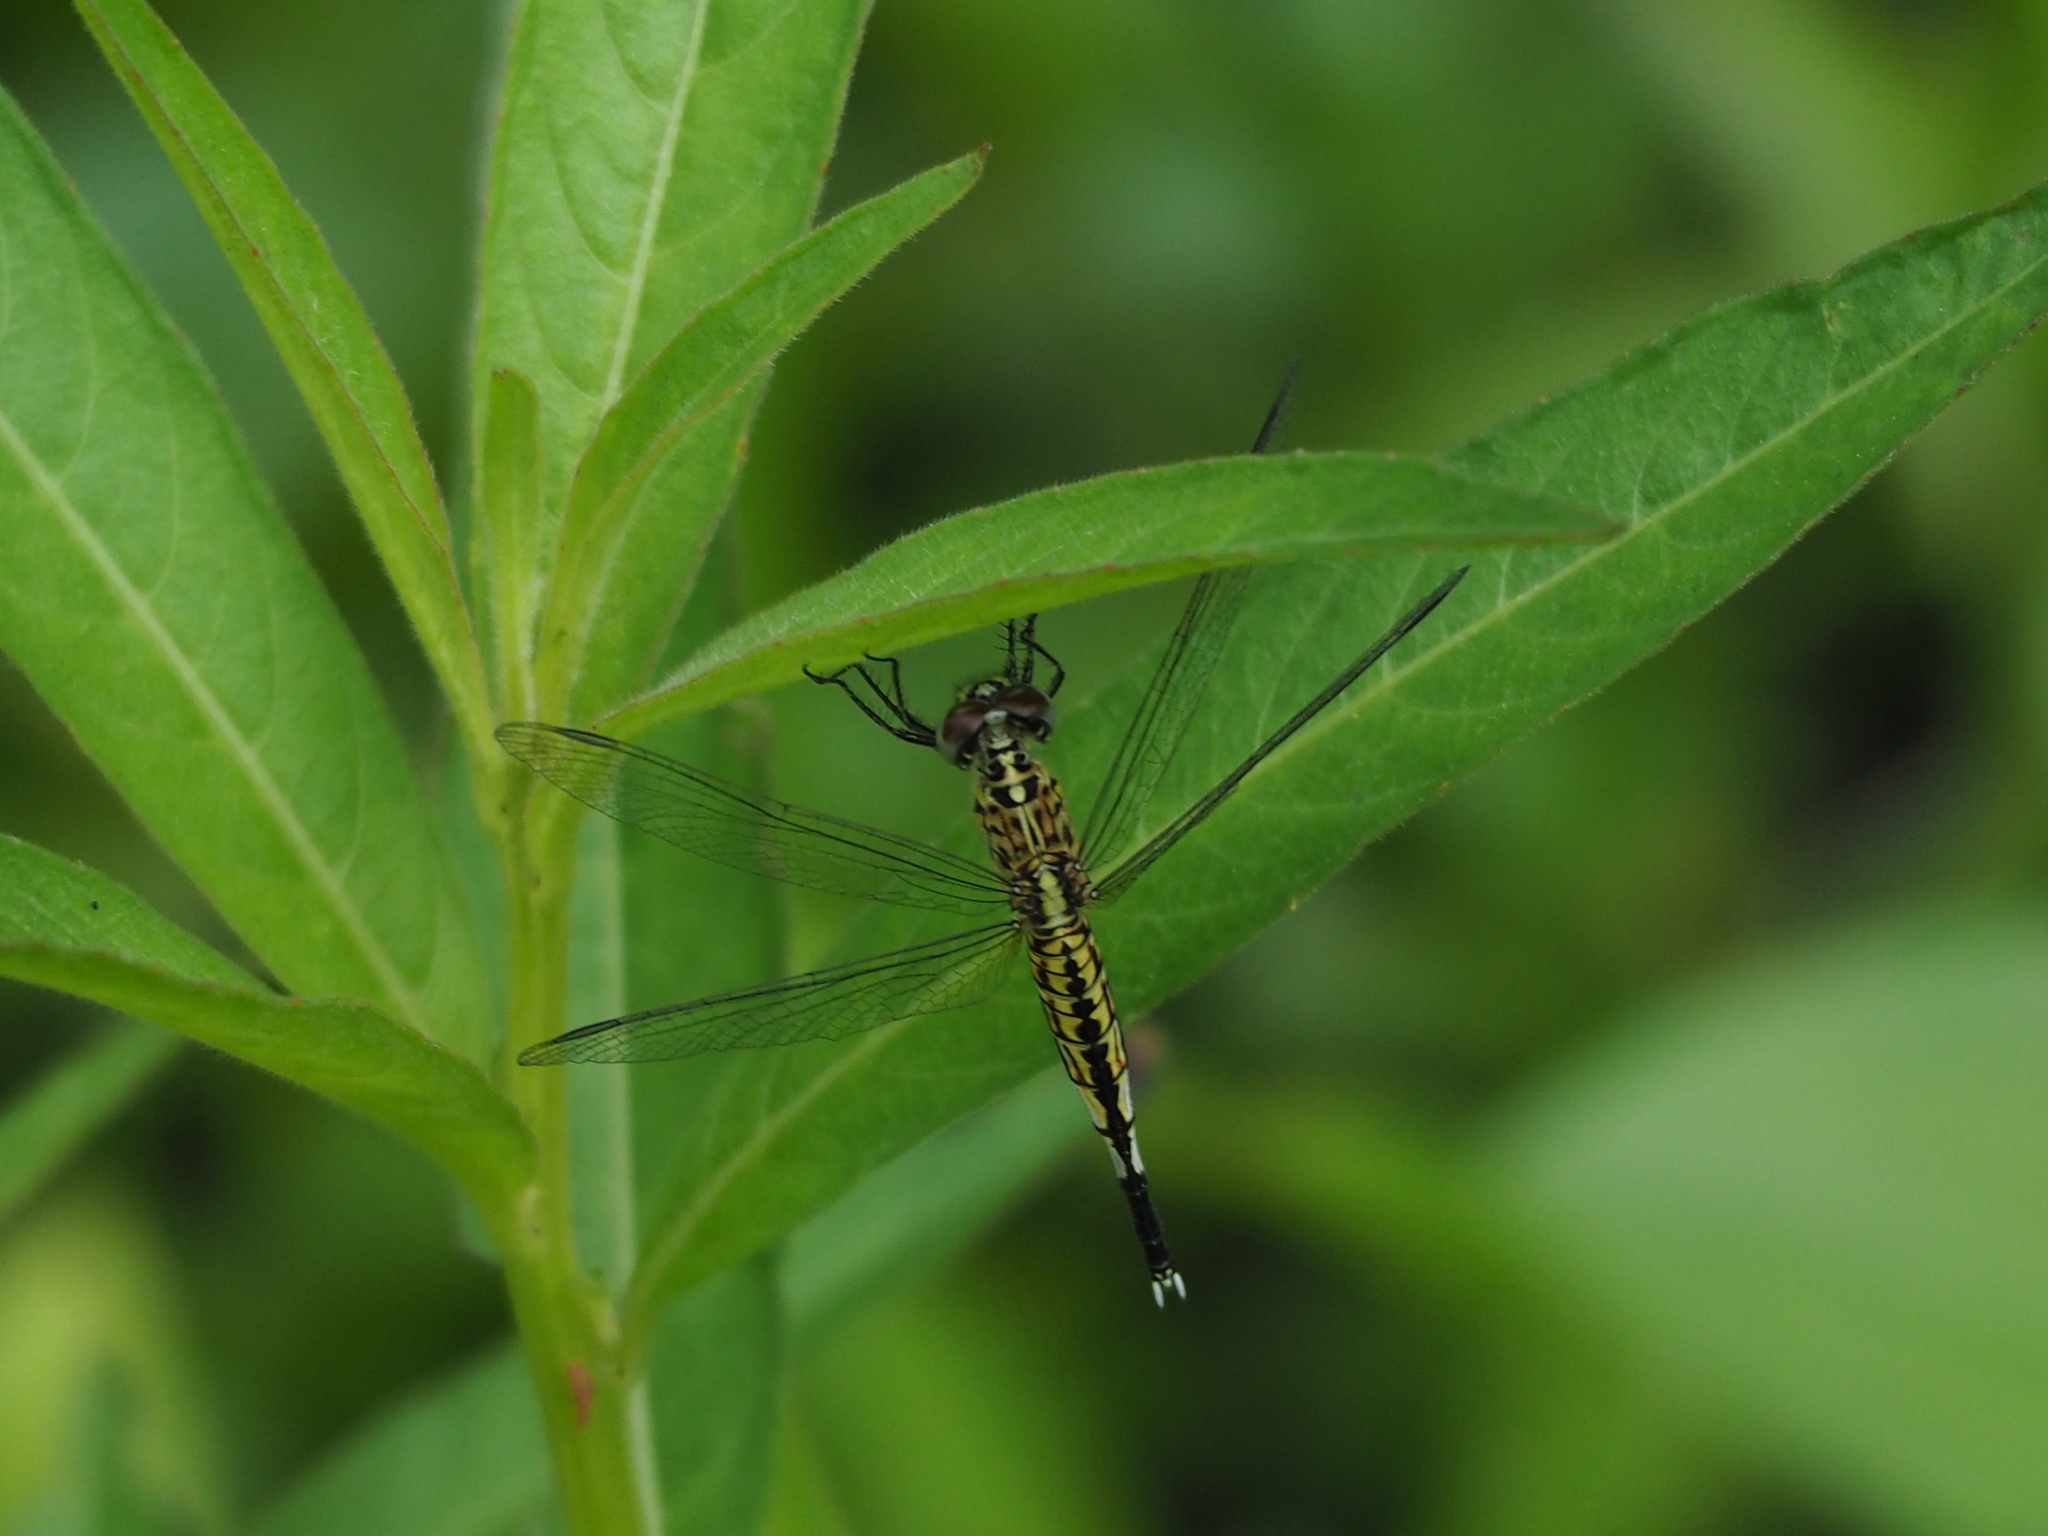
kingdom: Animalia
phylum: Arthropoda
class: Insecta
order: Odonata
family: Libellulidae
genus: Acisoma
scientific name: Acisoma panorpoides
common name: Asian pintail
